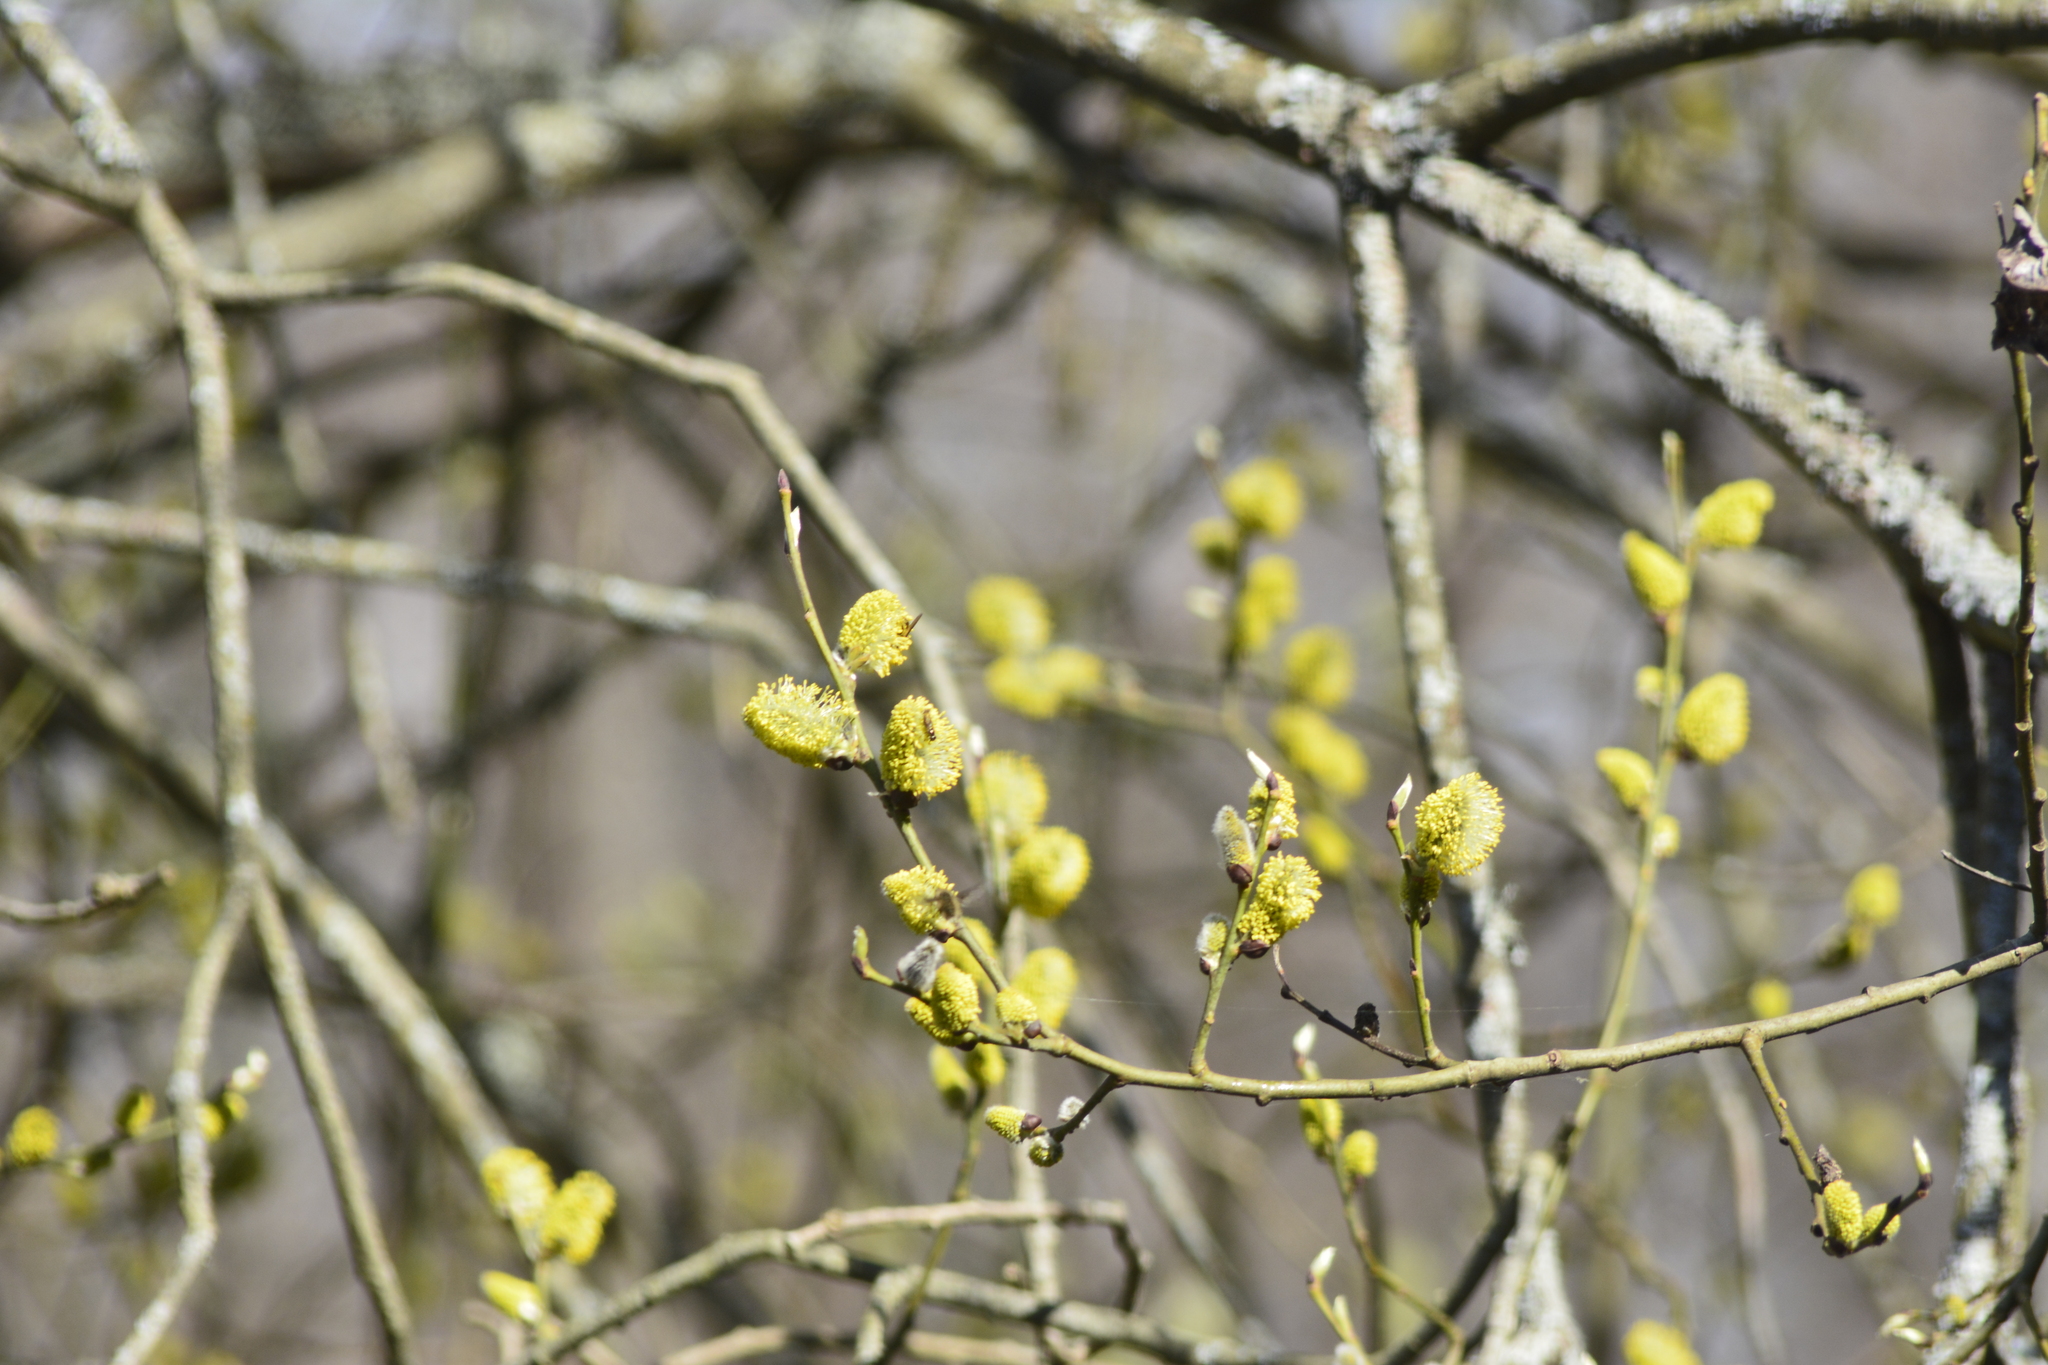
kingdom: Plantae
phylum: Tracheophyta
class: Magnoliopsida
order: Malpighiales
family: Salicaceae
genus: Salix
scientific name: Salix caprea
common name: Goat willow
